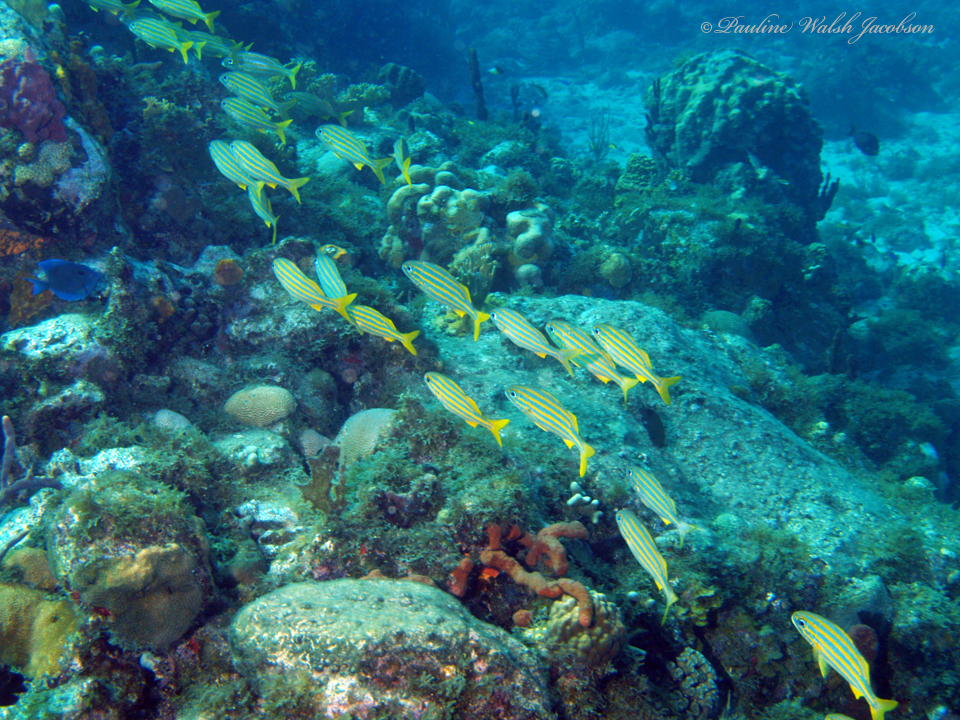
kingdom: Animalia
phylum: Chordata
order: Perciformes
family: Haemulidae
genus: Haemulon
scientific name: Haemulon chrysargyreum
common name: Smallmouth grunt
